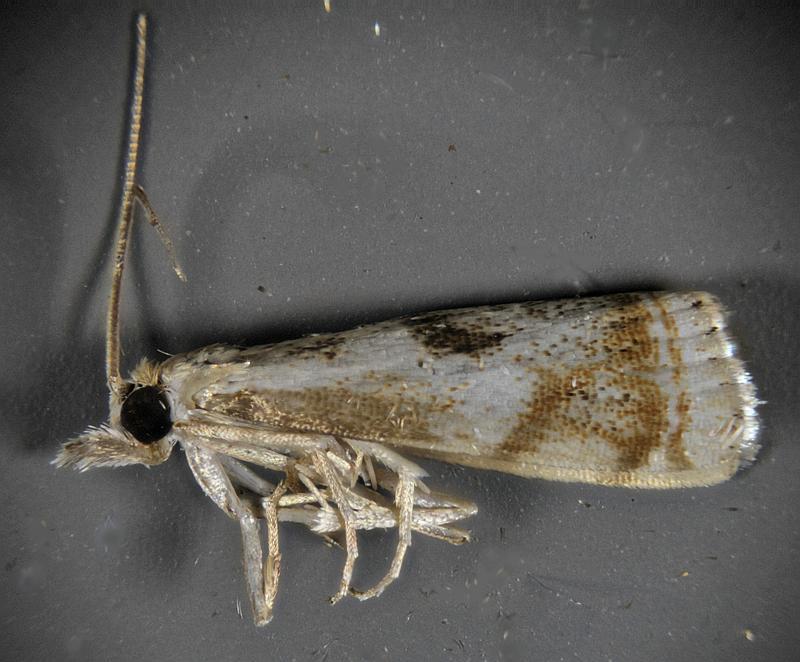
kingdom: Animalia
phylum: Arthropoda
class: Insecta
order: Lepidoptera
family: Crambidae
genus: Microcrambus
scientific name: Microcrambus elegans
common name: Elegant grass-veneer
